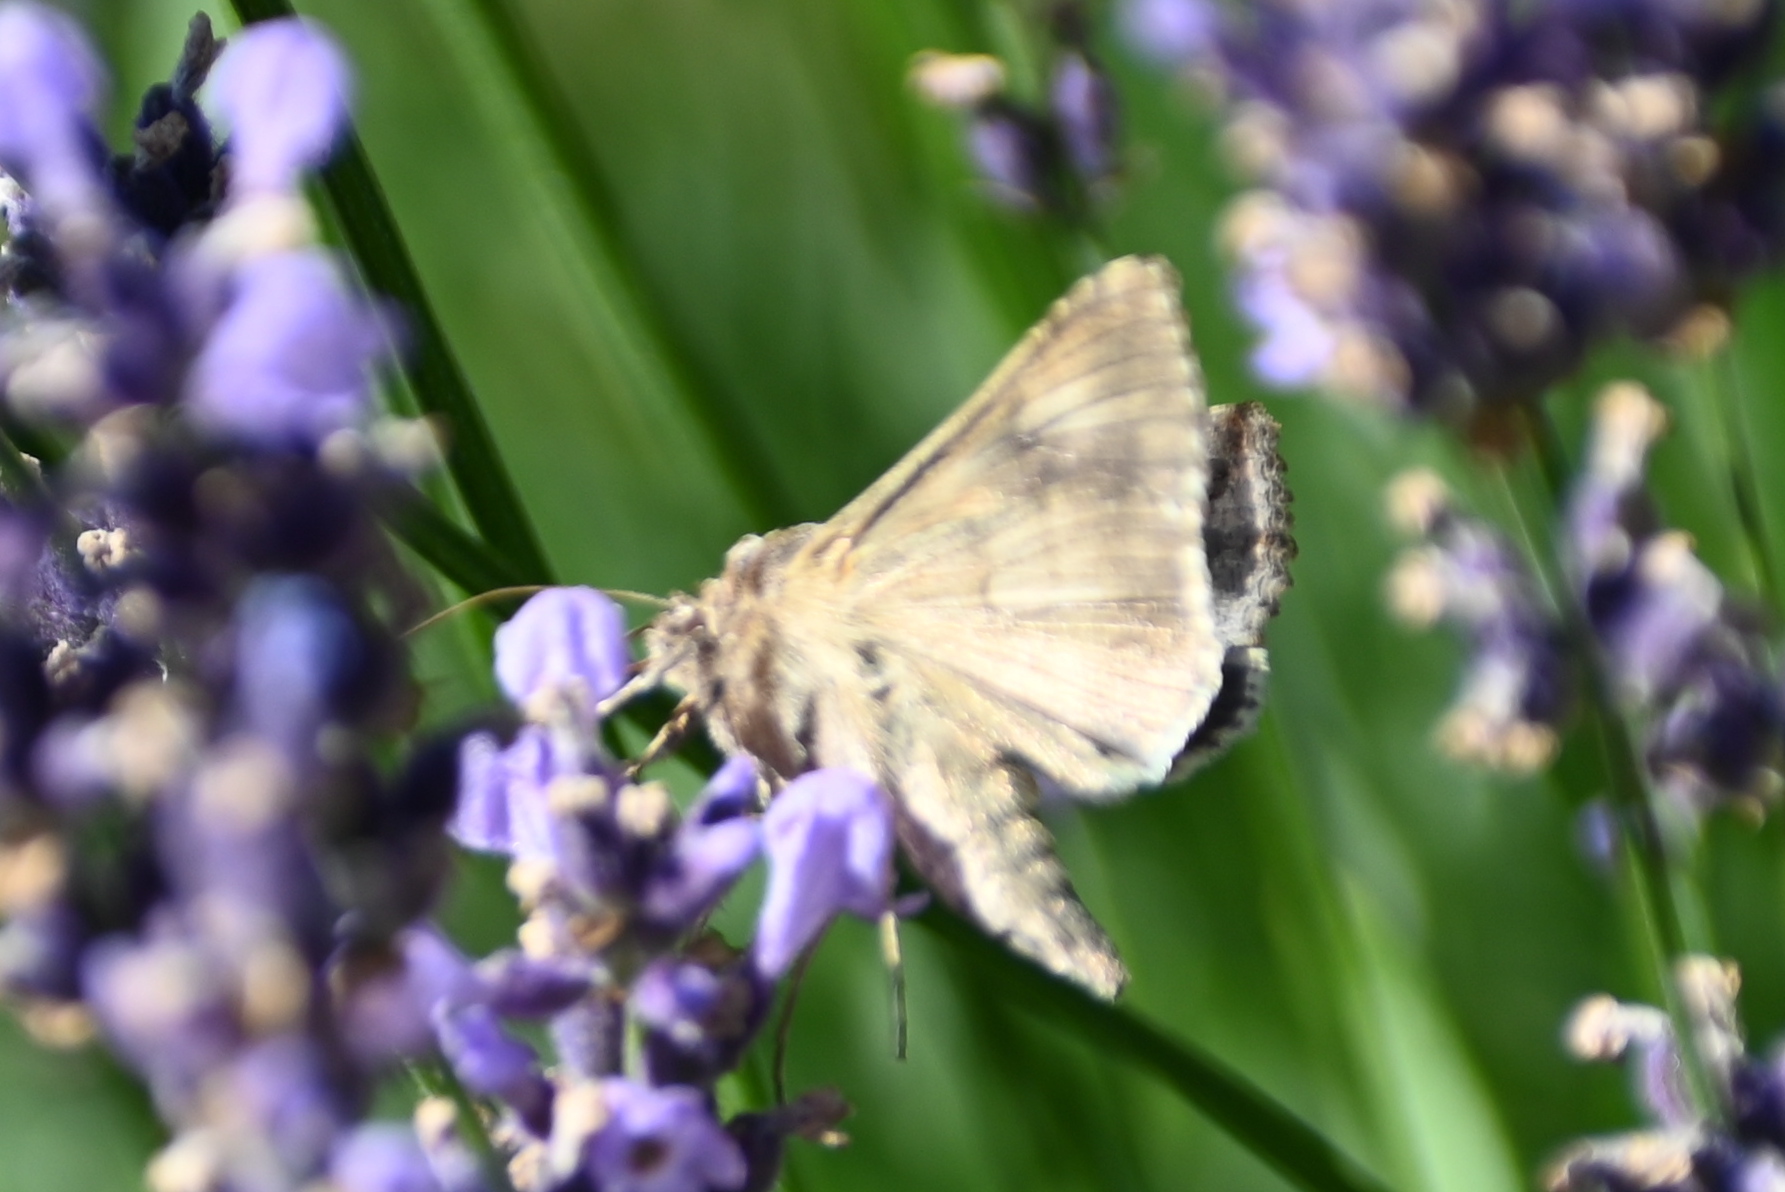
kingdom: Animalia
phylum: Arthropoda
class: Insecta
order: Lepidoptera
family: Noctuidae
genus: Autographa
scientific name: Autographa gamma
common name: Silver y
